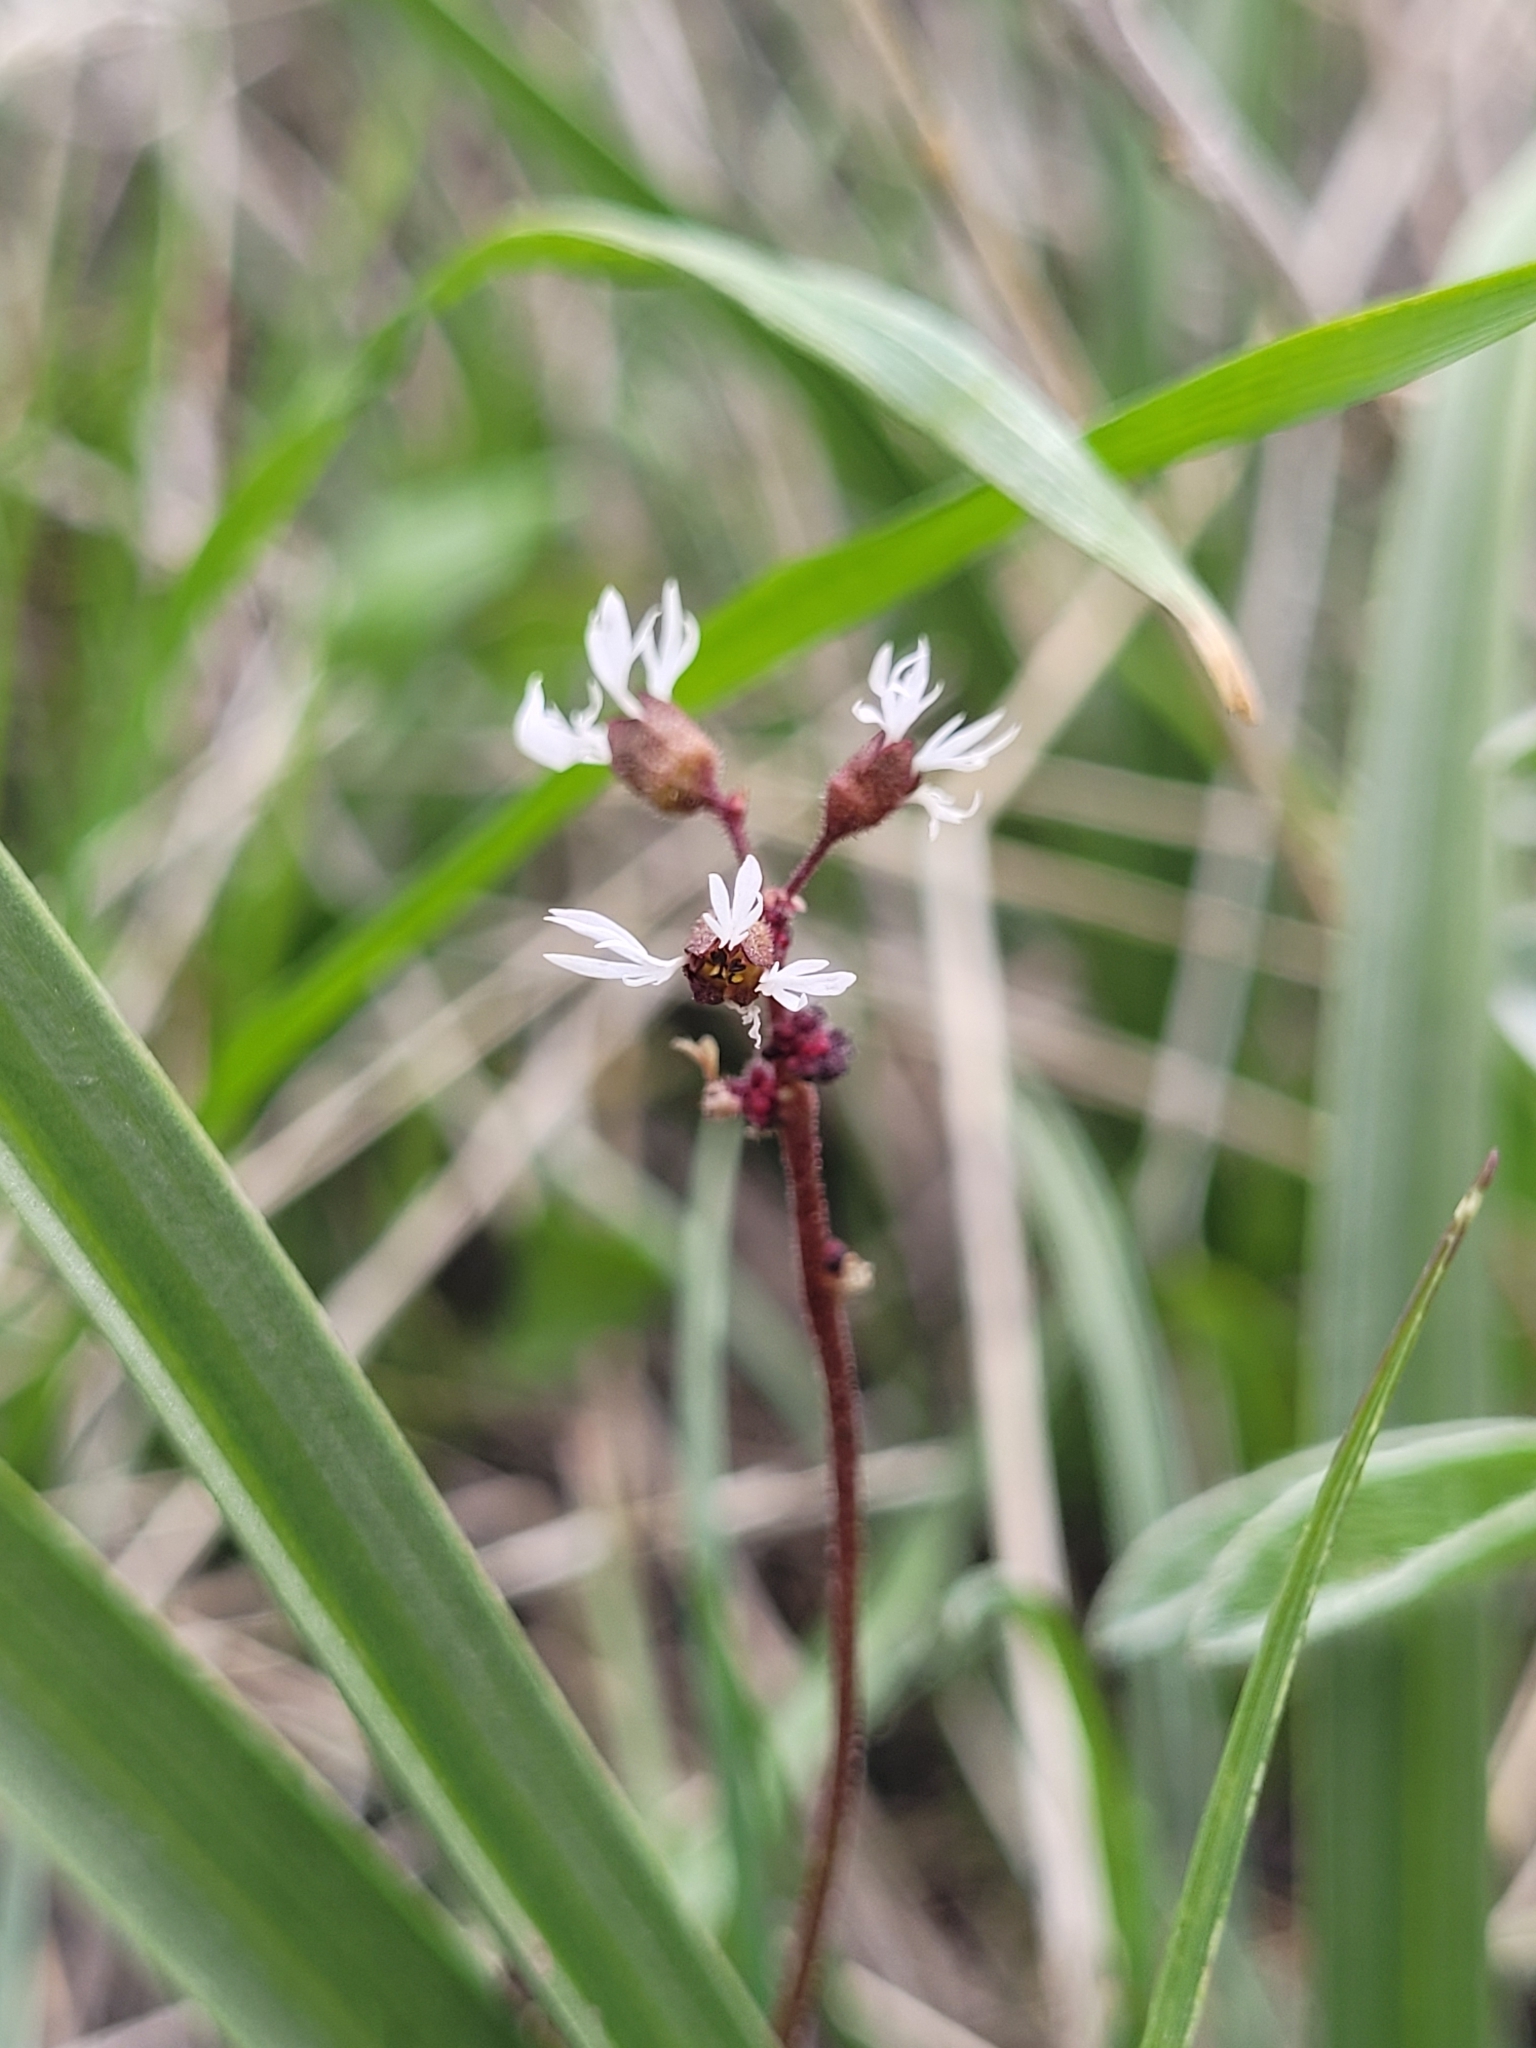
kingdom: Plantae
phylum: Tracheophyta
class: Magnoliopsida
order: Saxifragales
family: Saxifragaceae
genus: Lithophragma
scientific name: Lithophragma glabrum
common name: Bulbous prairie-star
